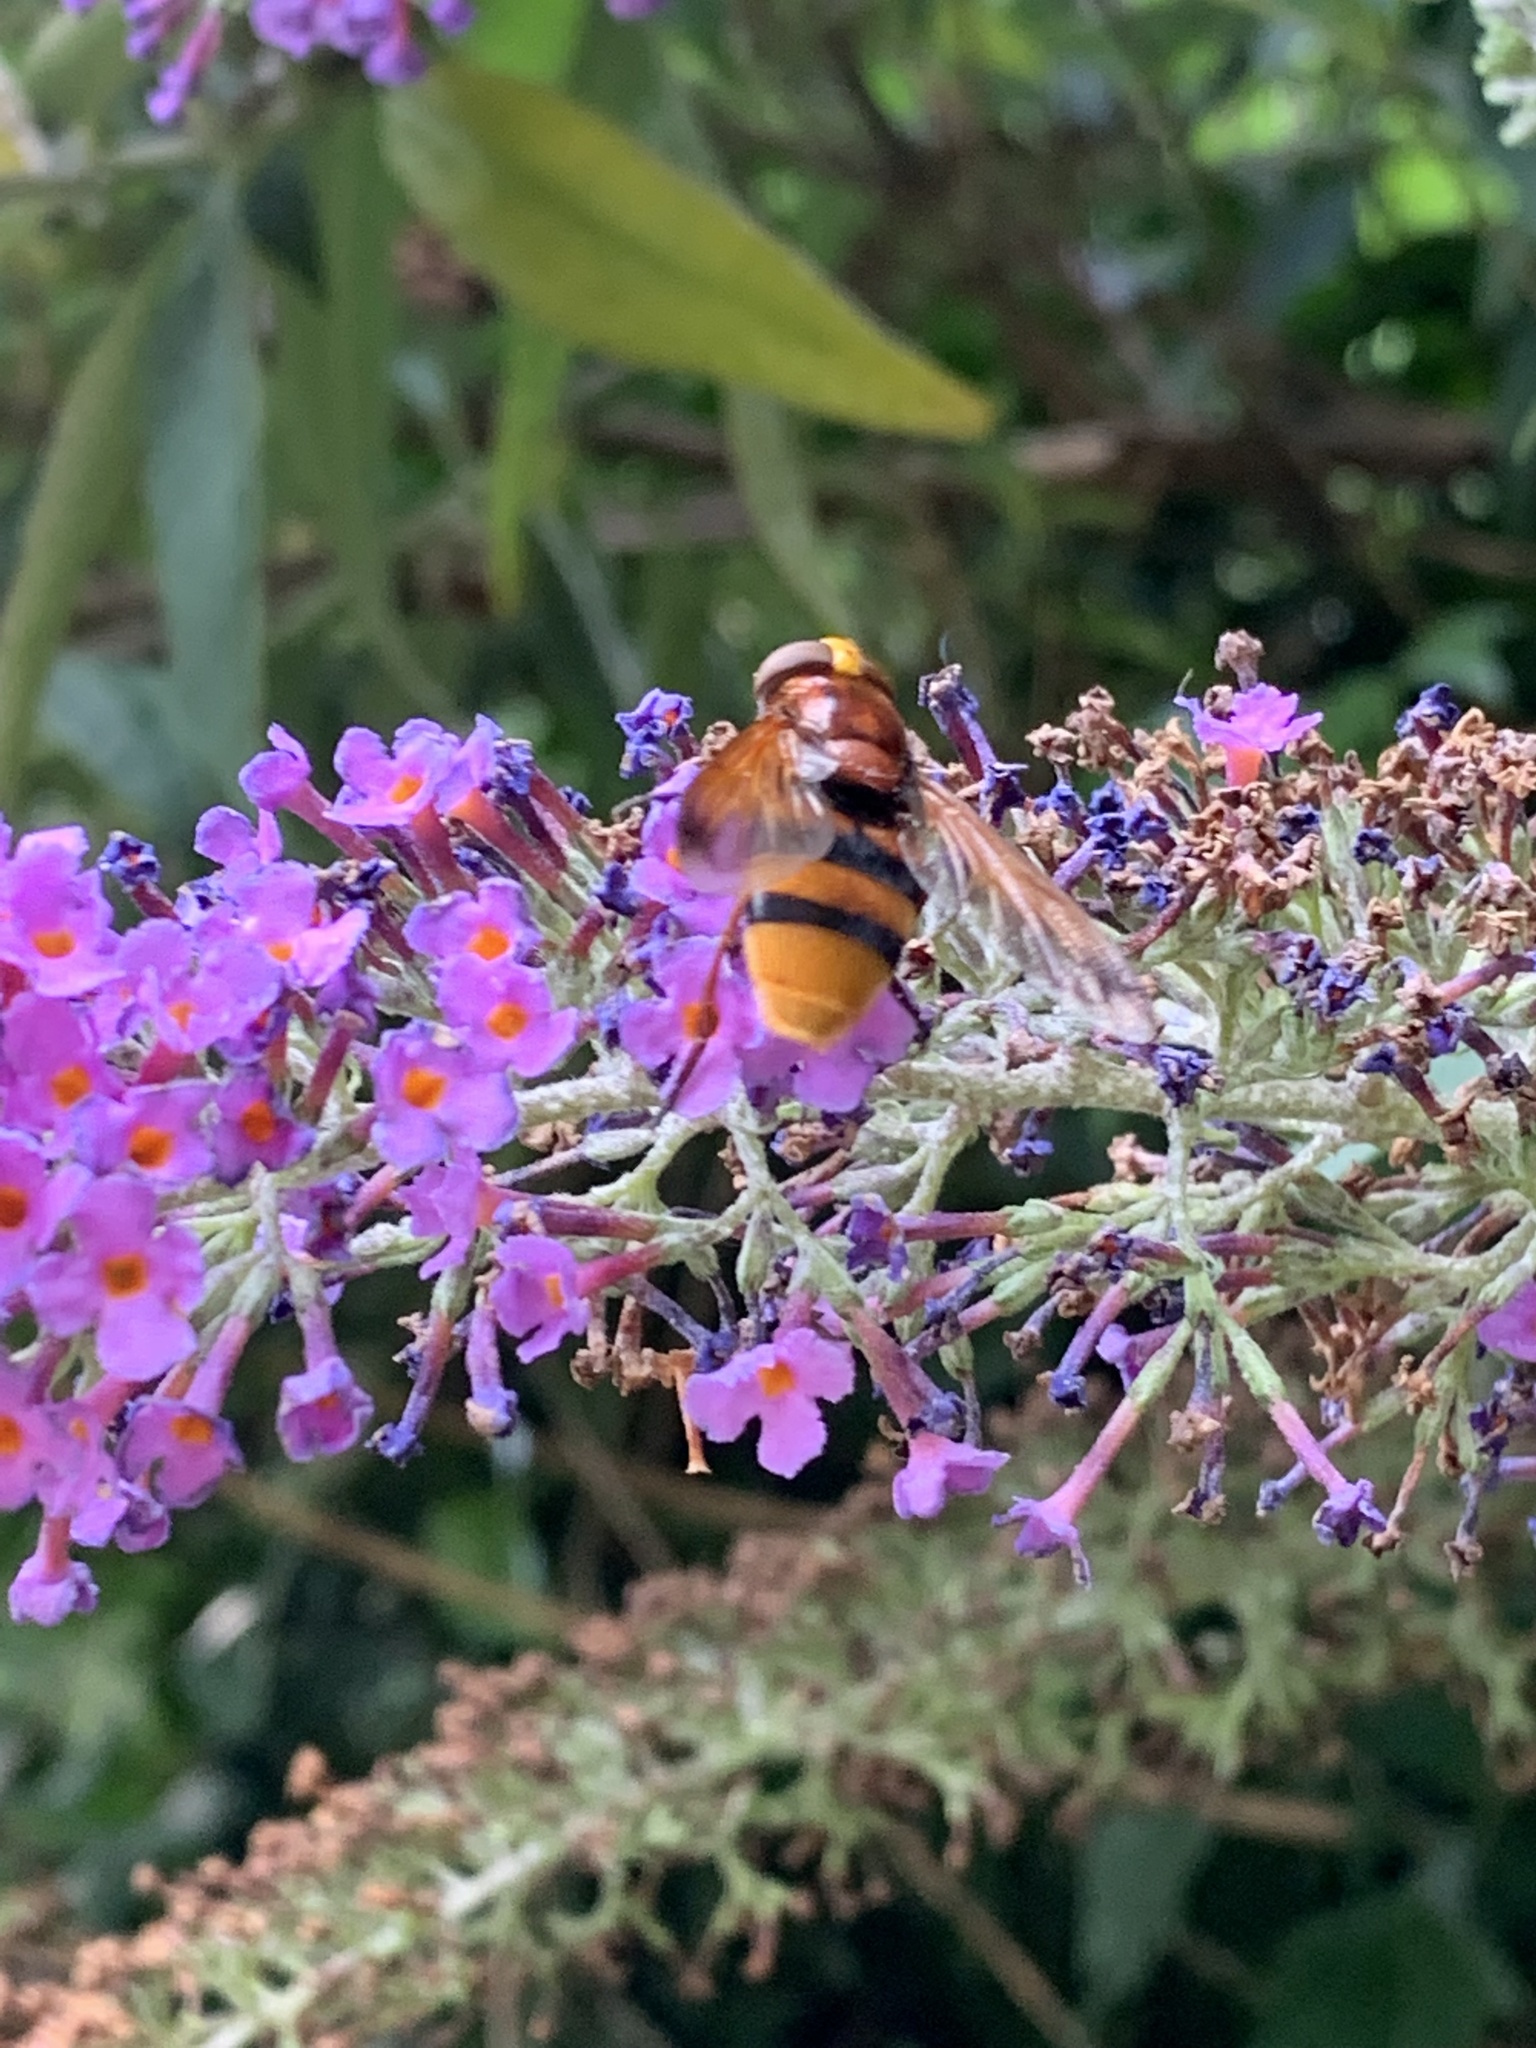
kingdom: Animalia
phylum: Arthropoda
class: Insecta
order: Diptera
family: Syrphidae
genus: Volucella
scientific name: Volucella zonaria
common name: Hornet hoverfly
